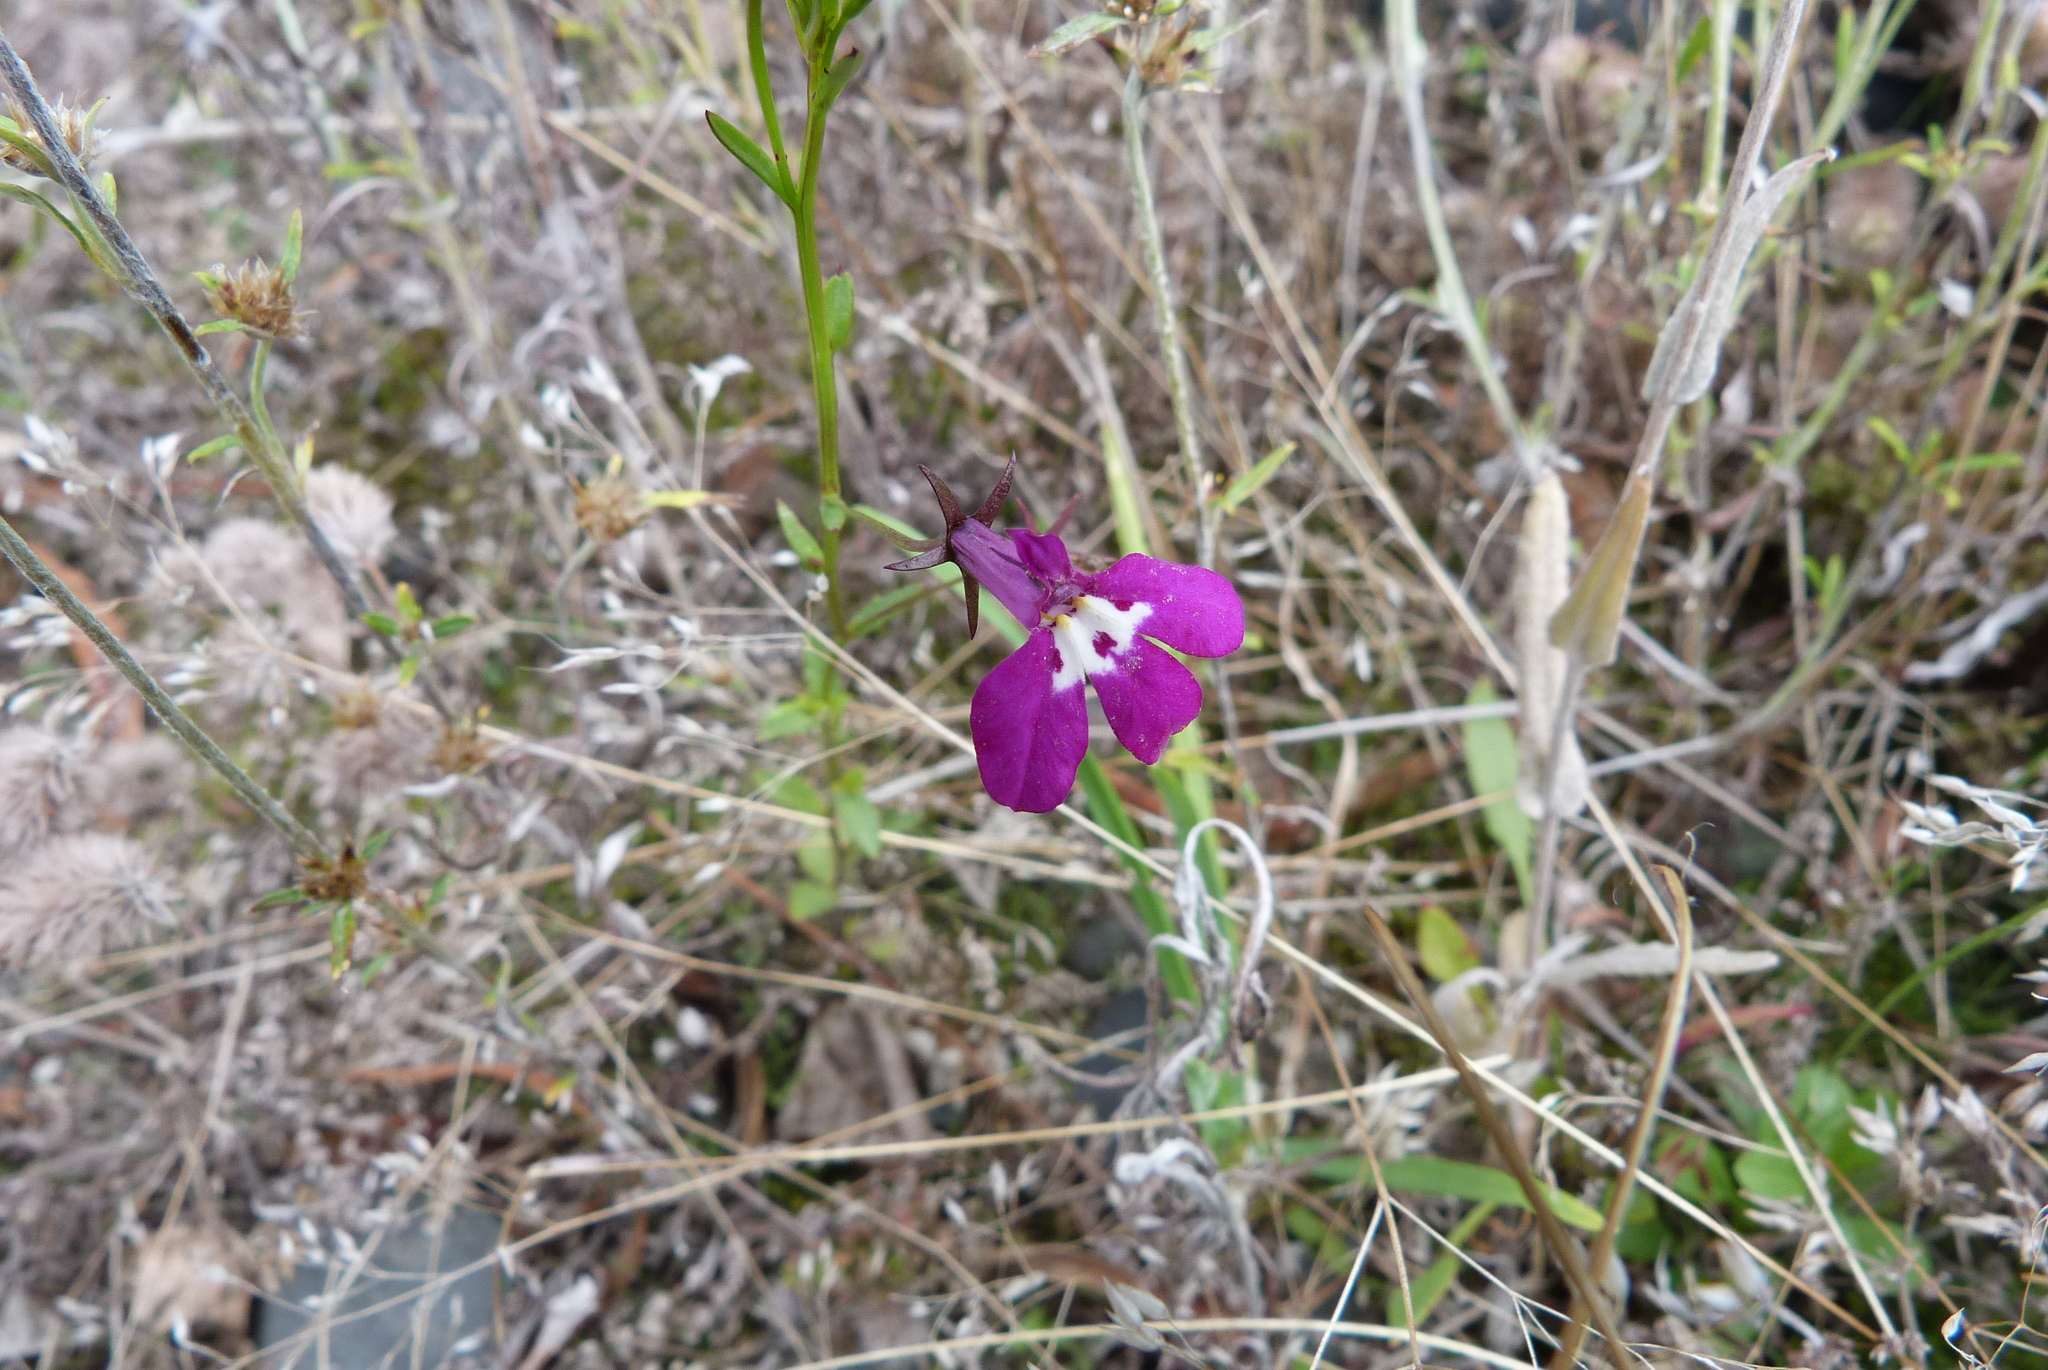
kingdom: Plantae
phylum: Tracheophyta
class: Magnoliopsida
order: Asterales
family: Campanulaceae
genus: Lobelia
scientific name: Lobelia erinus
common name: Edging lobelia
